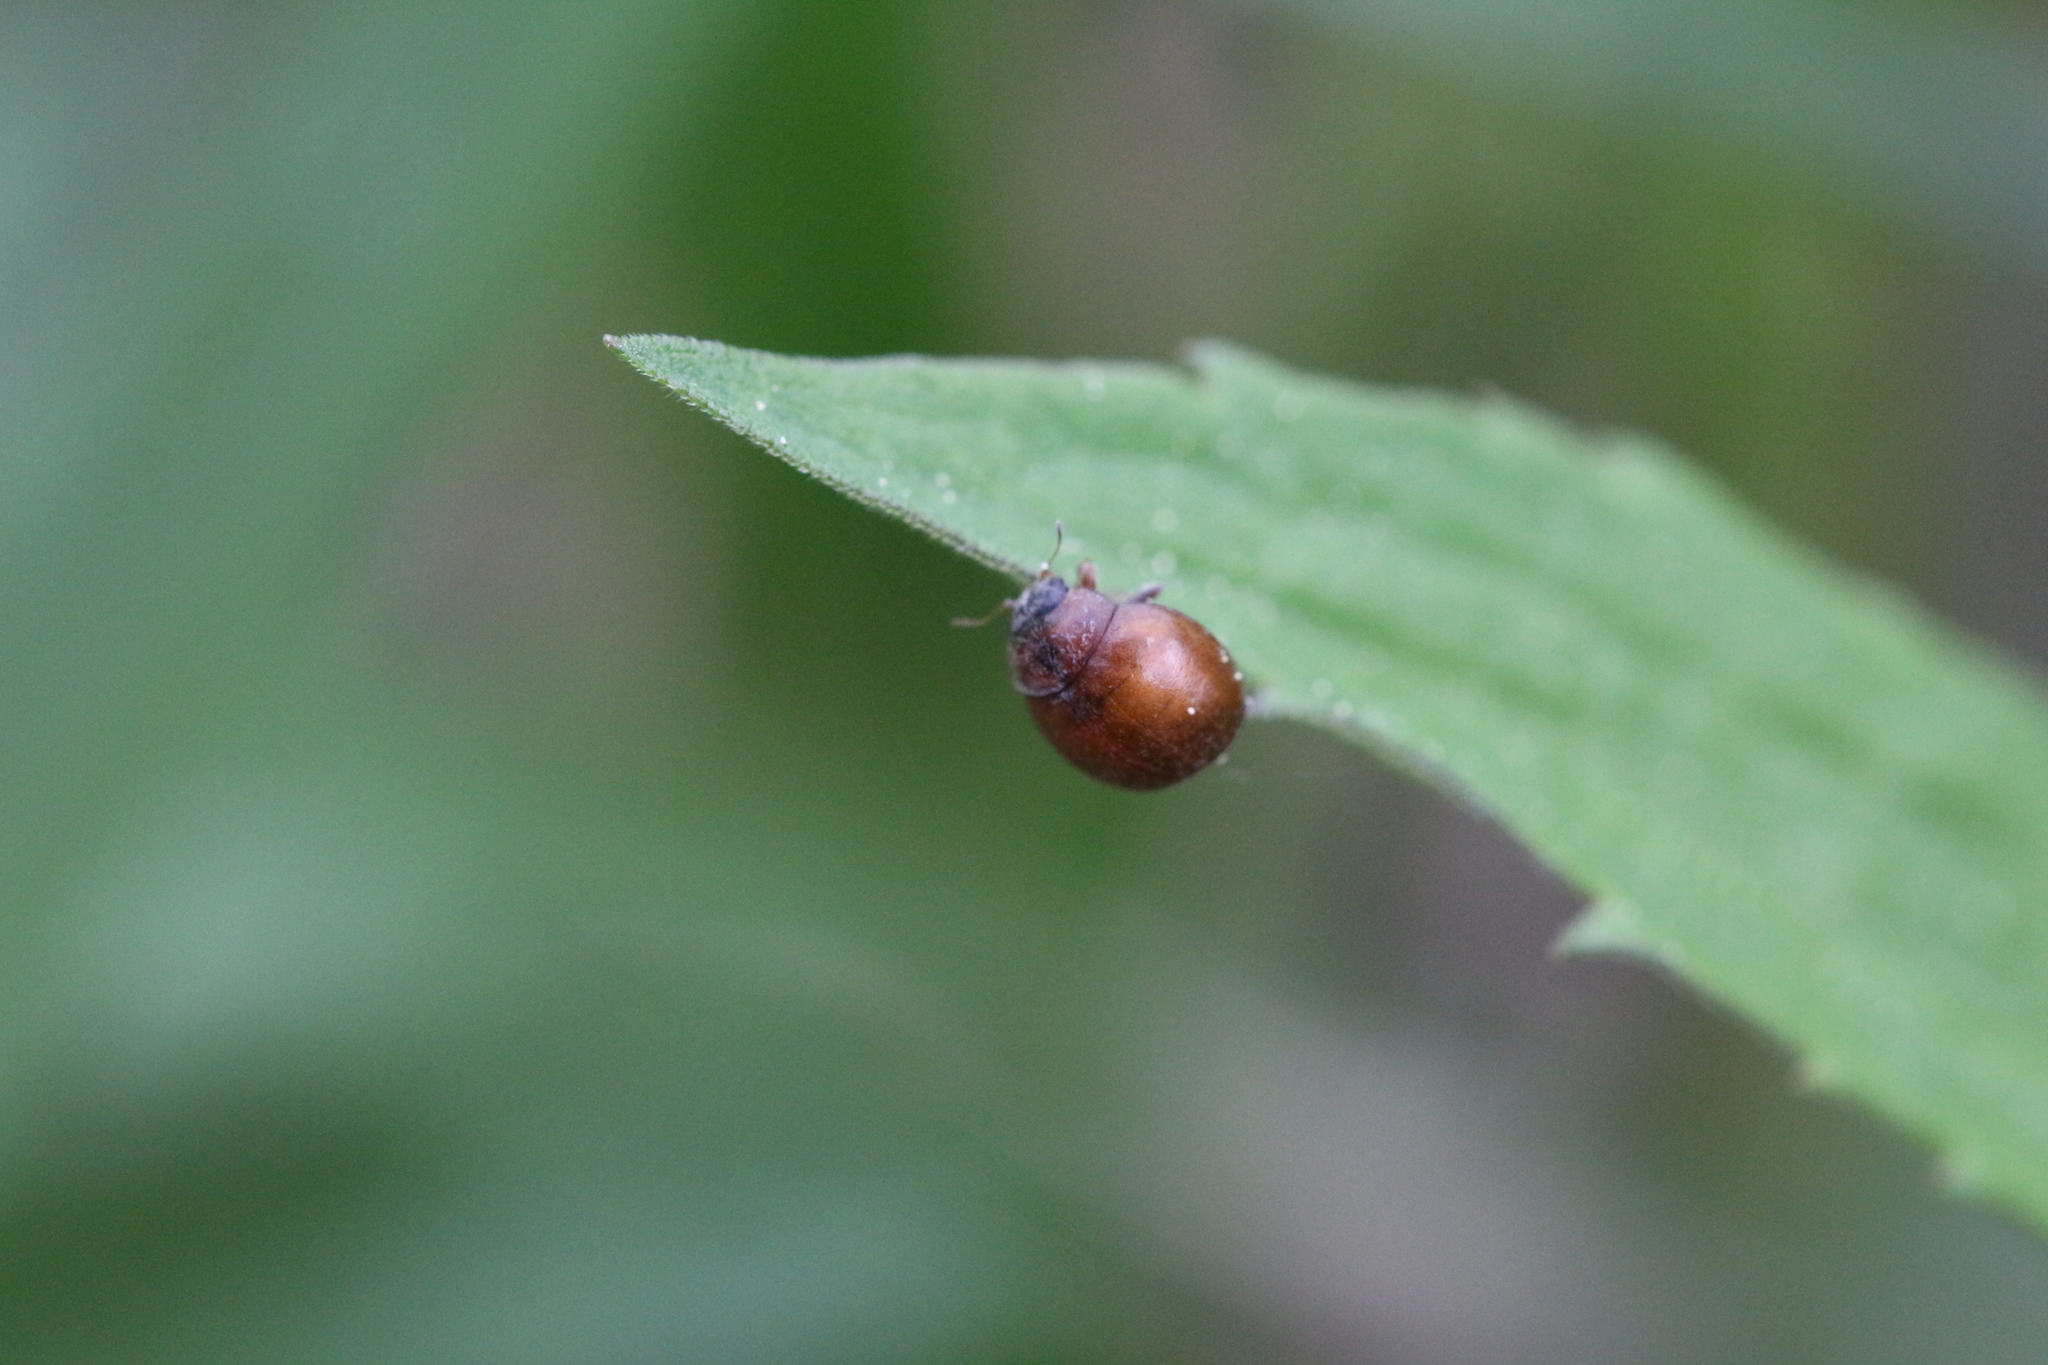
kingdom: Animalia
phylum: Arthropoda
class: Insecta
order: Coleoptera
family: Coccinellidae
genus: Cynegetis
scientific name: Cynegetis impunctata
